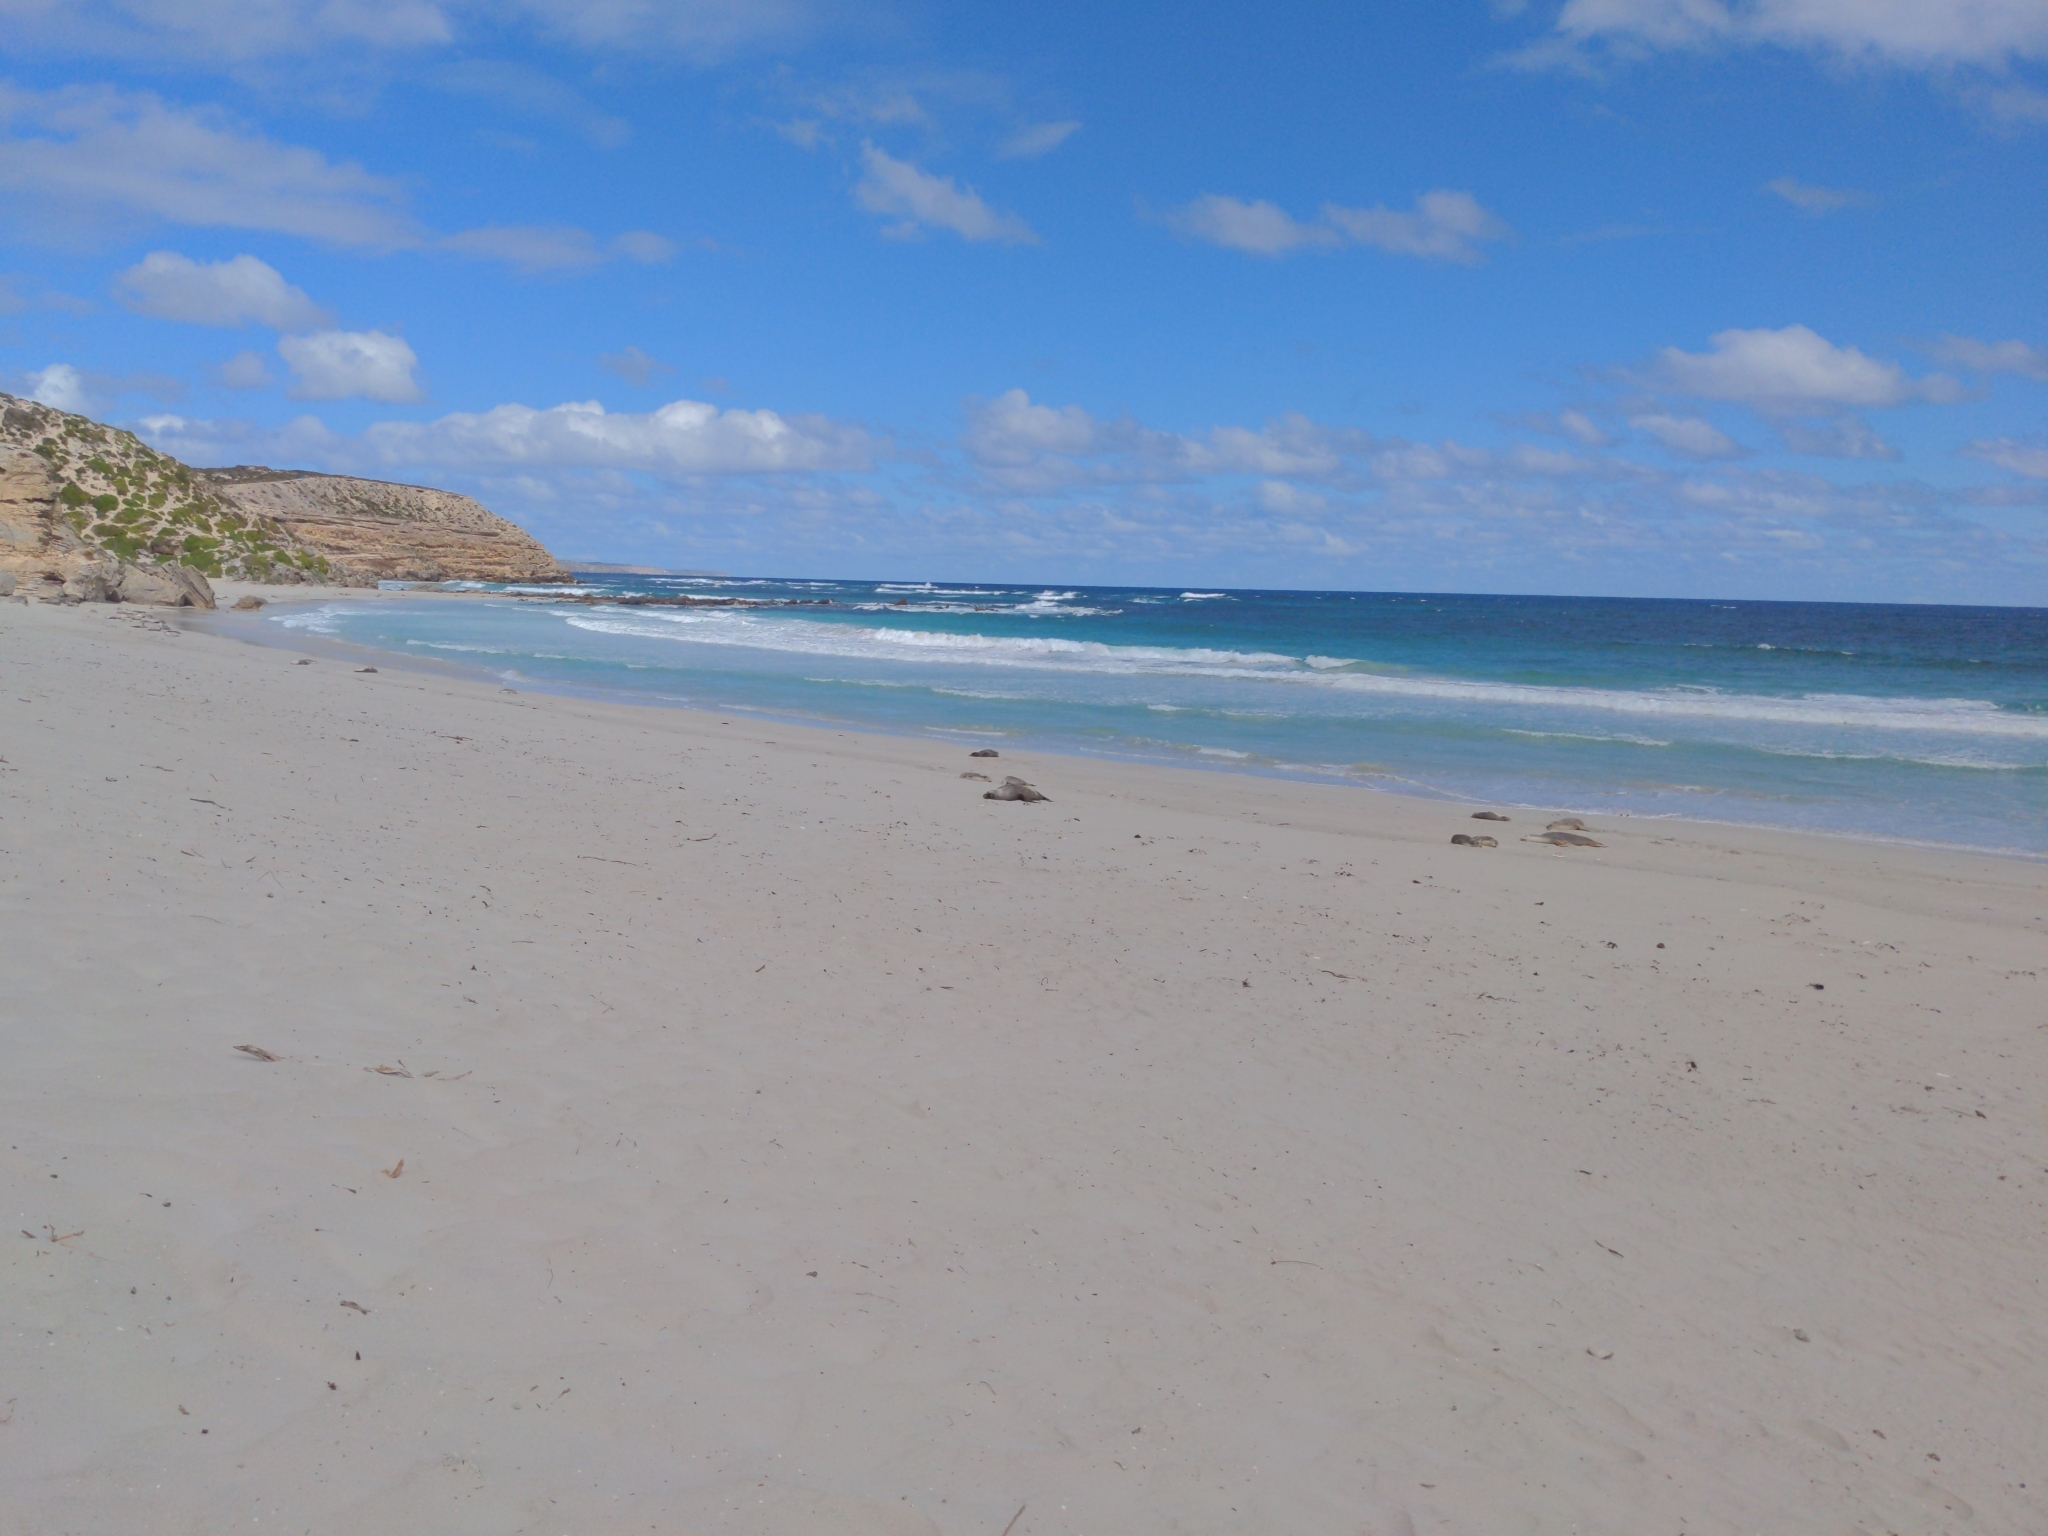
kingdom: Animalia
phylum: Chordata
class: Mammalia
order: Carnivora
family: Otariidae
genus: Neophoca
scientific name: Neophoca cinerea
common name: Australian sea lion
